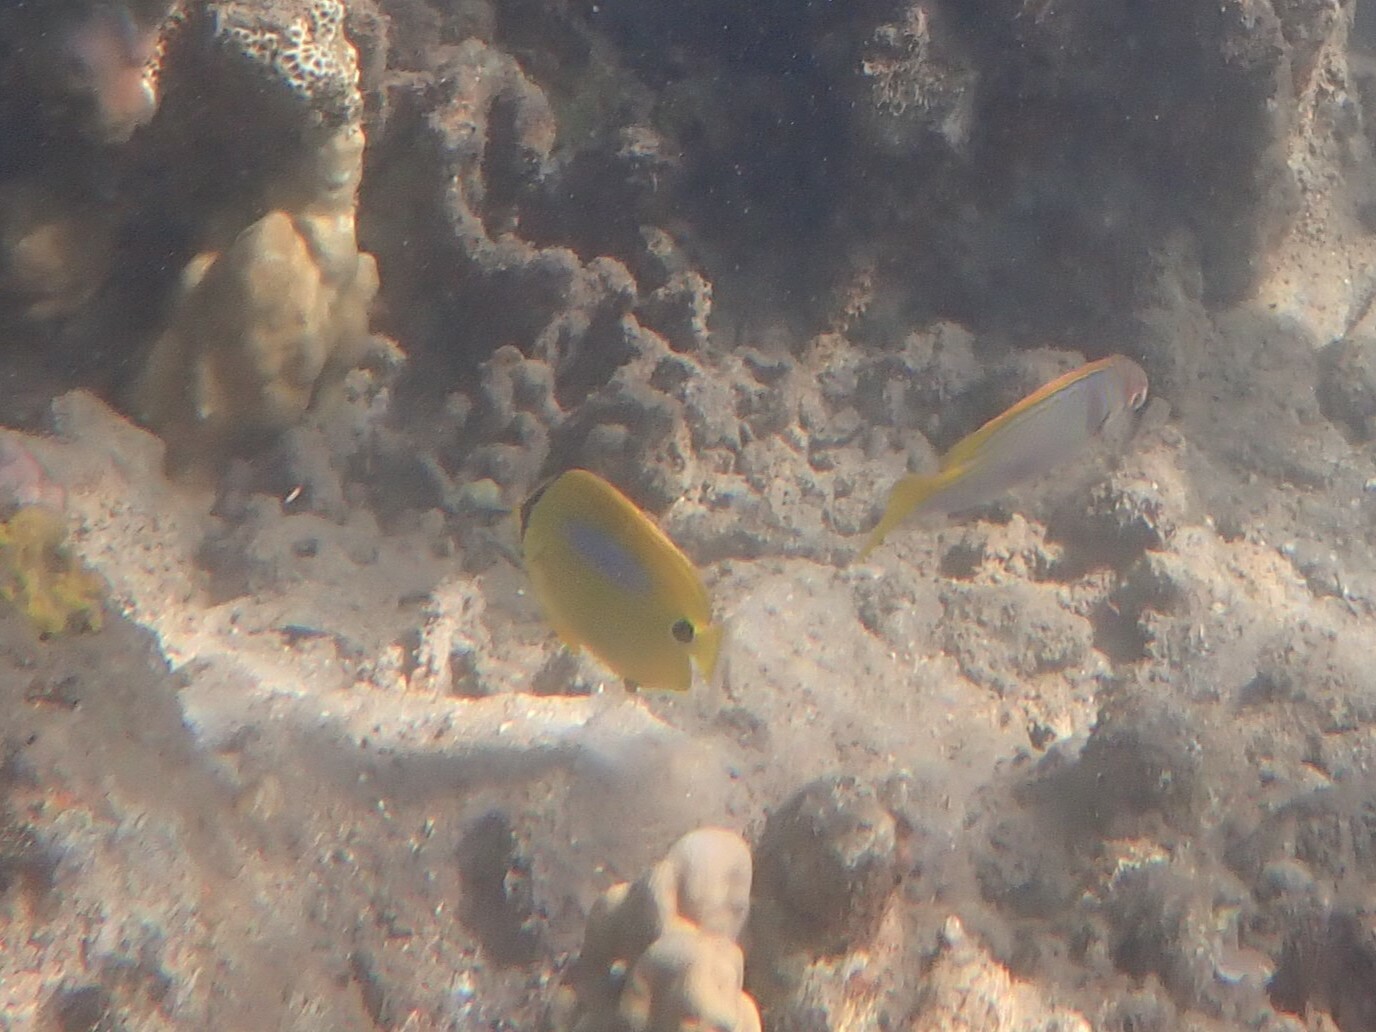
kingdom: Animalia
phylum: Chordata
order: Perciformes
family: Chaetodontidae
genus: Chaetodon
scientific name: Chaetodon plebeius
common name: Bluespot butterflyfish
